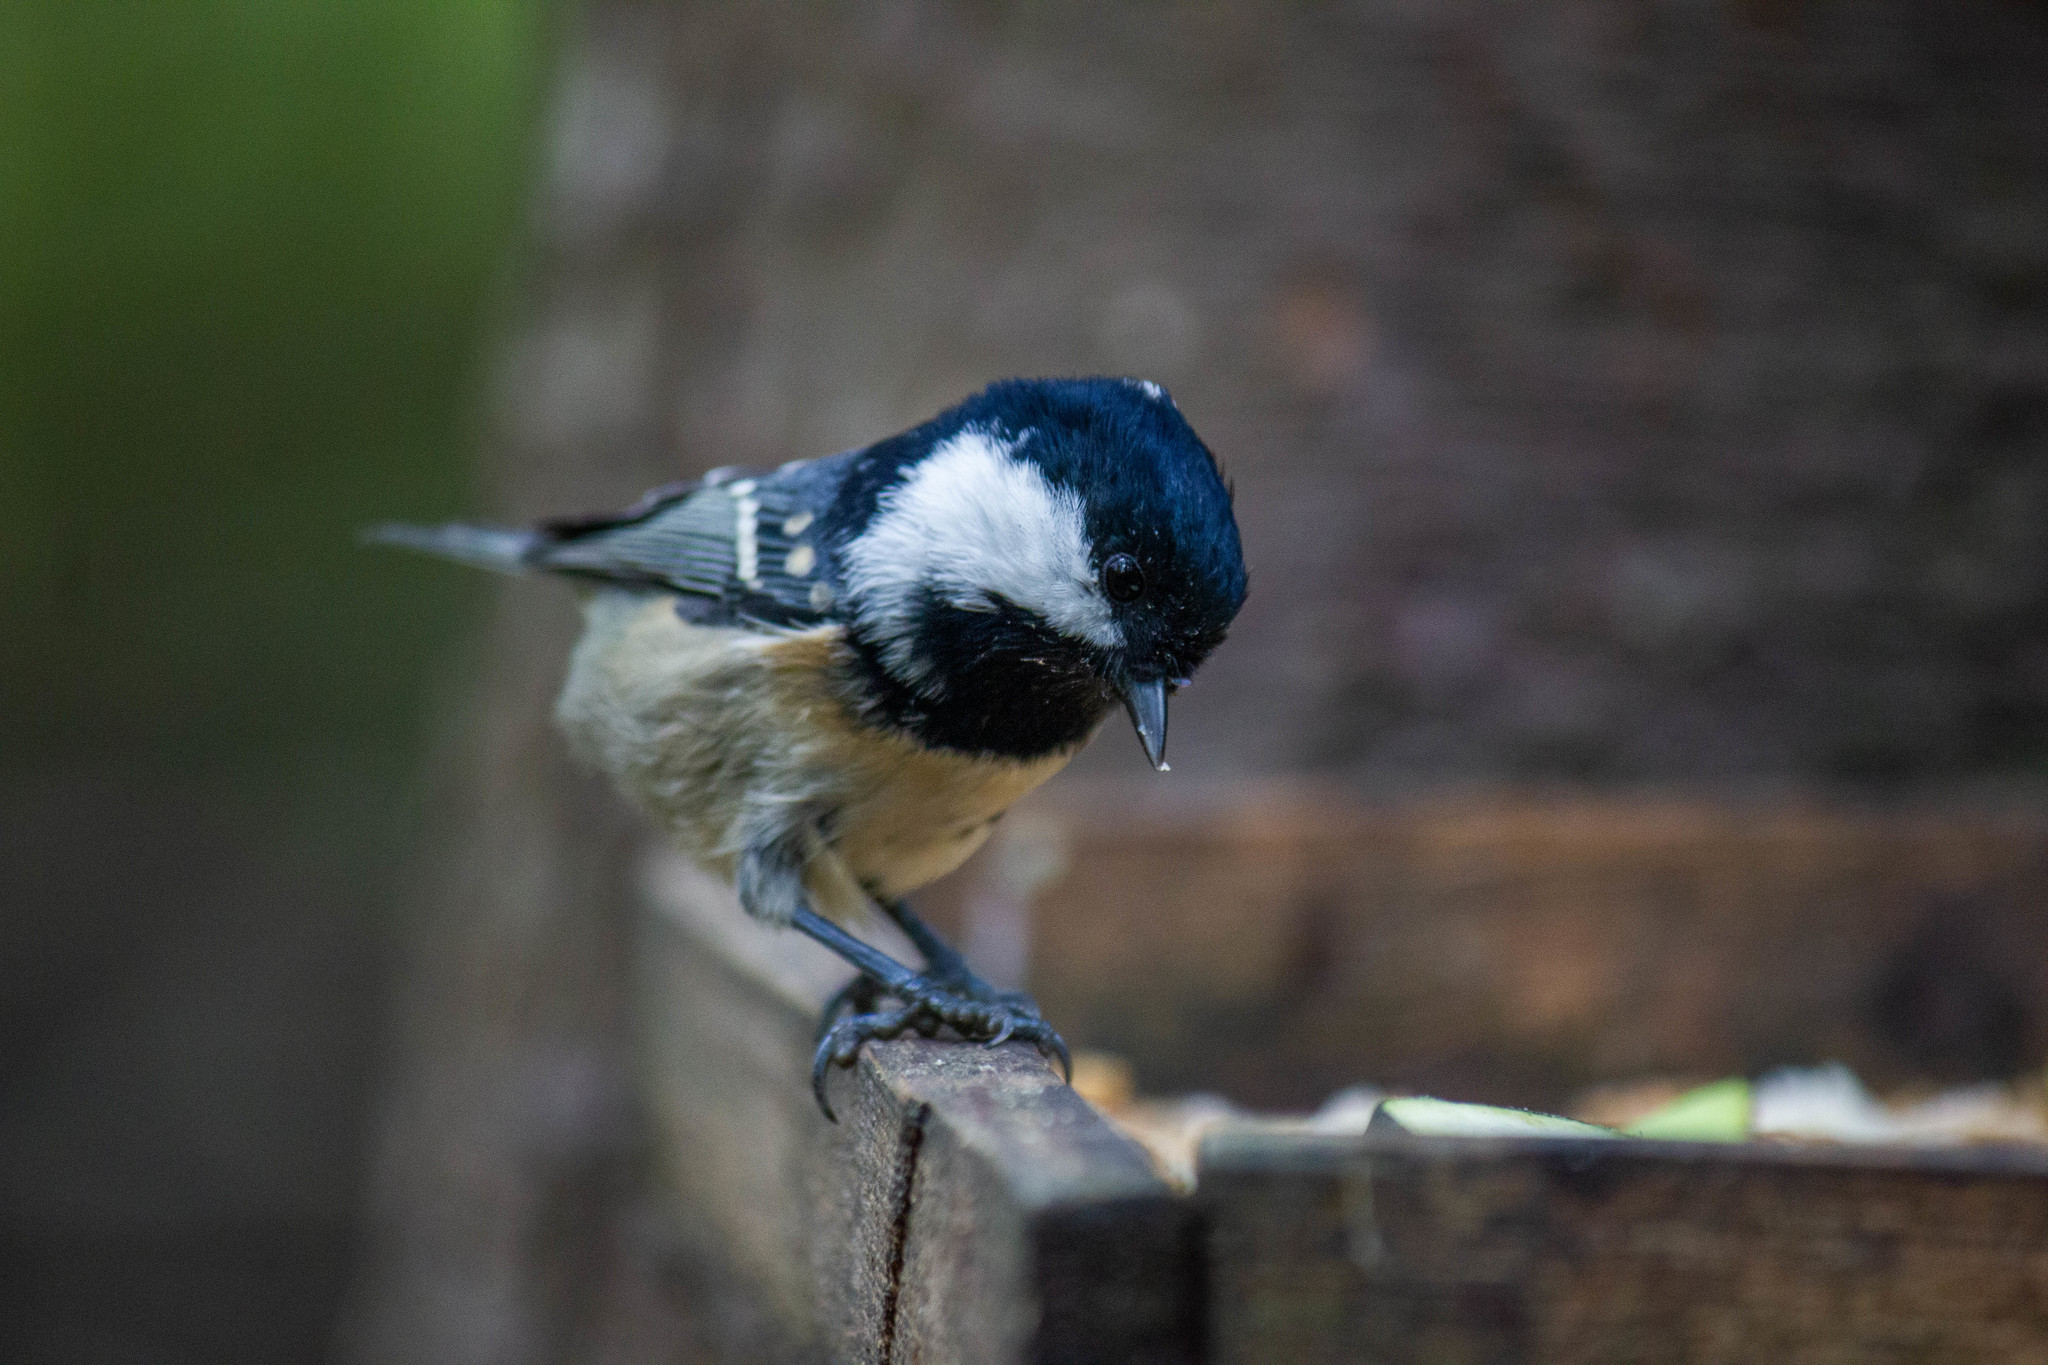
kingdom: Animalia
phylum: Chordata
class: Aves
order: Passeriformes
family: Paridae
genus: Periparus
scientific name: Periparus ater
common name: Coal tit
